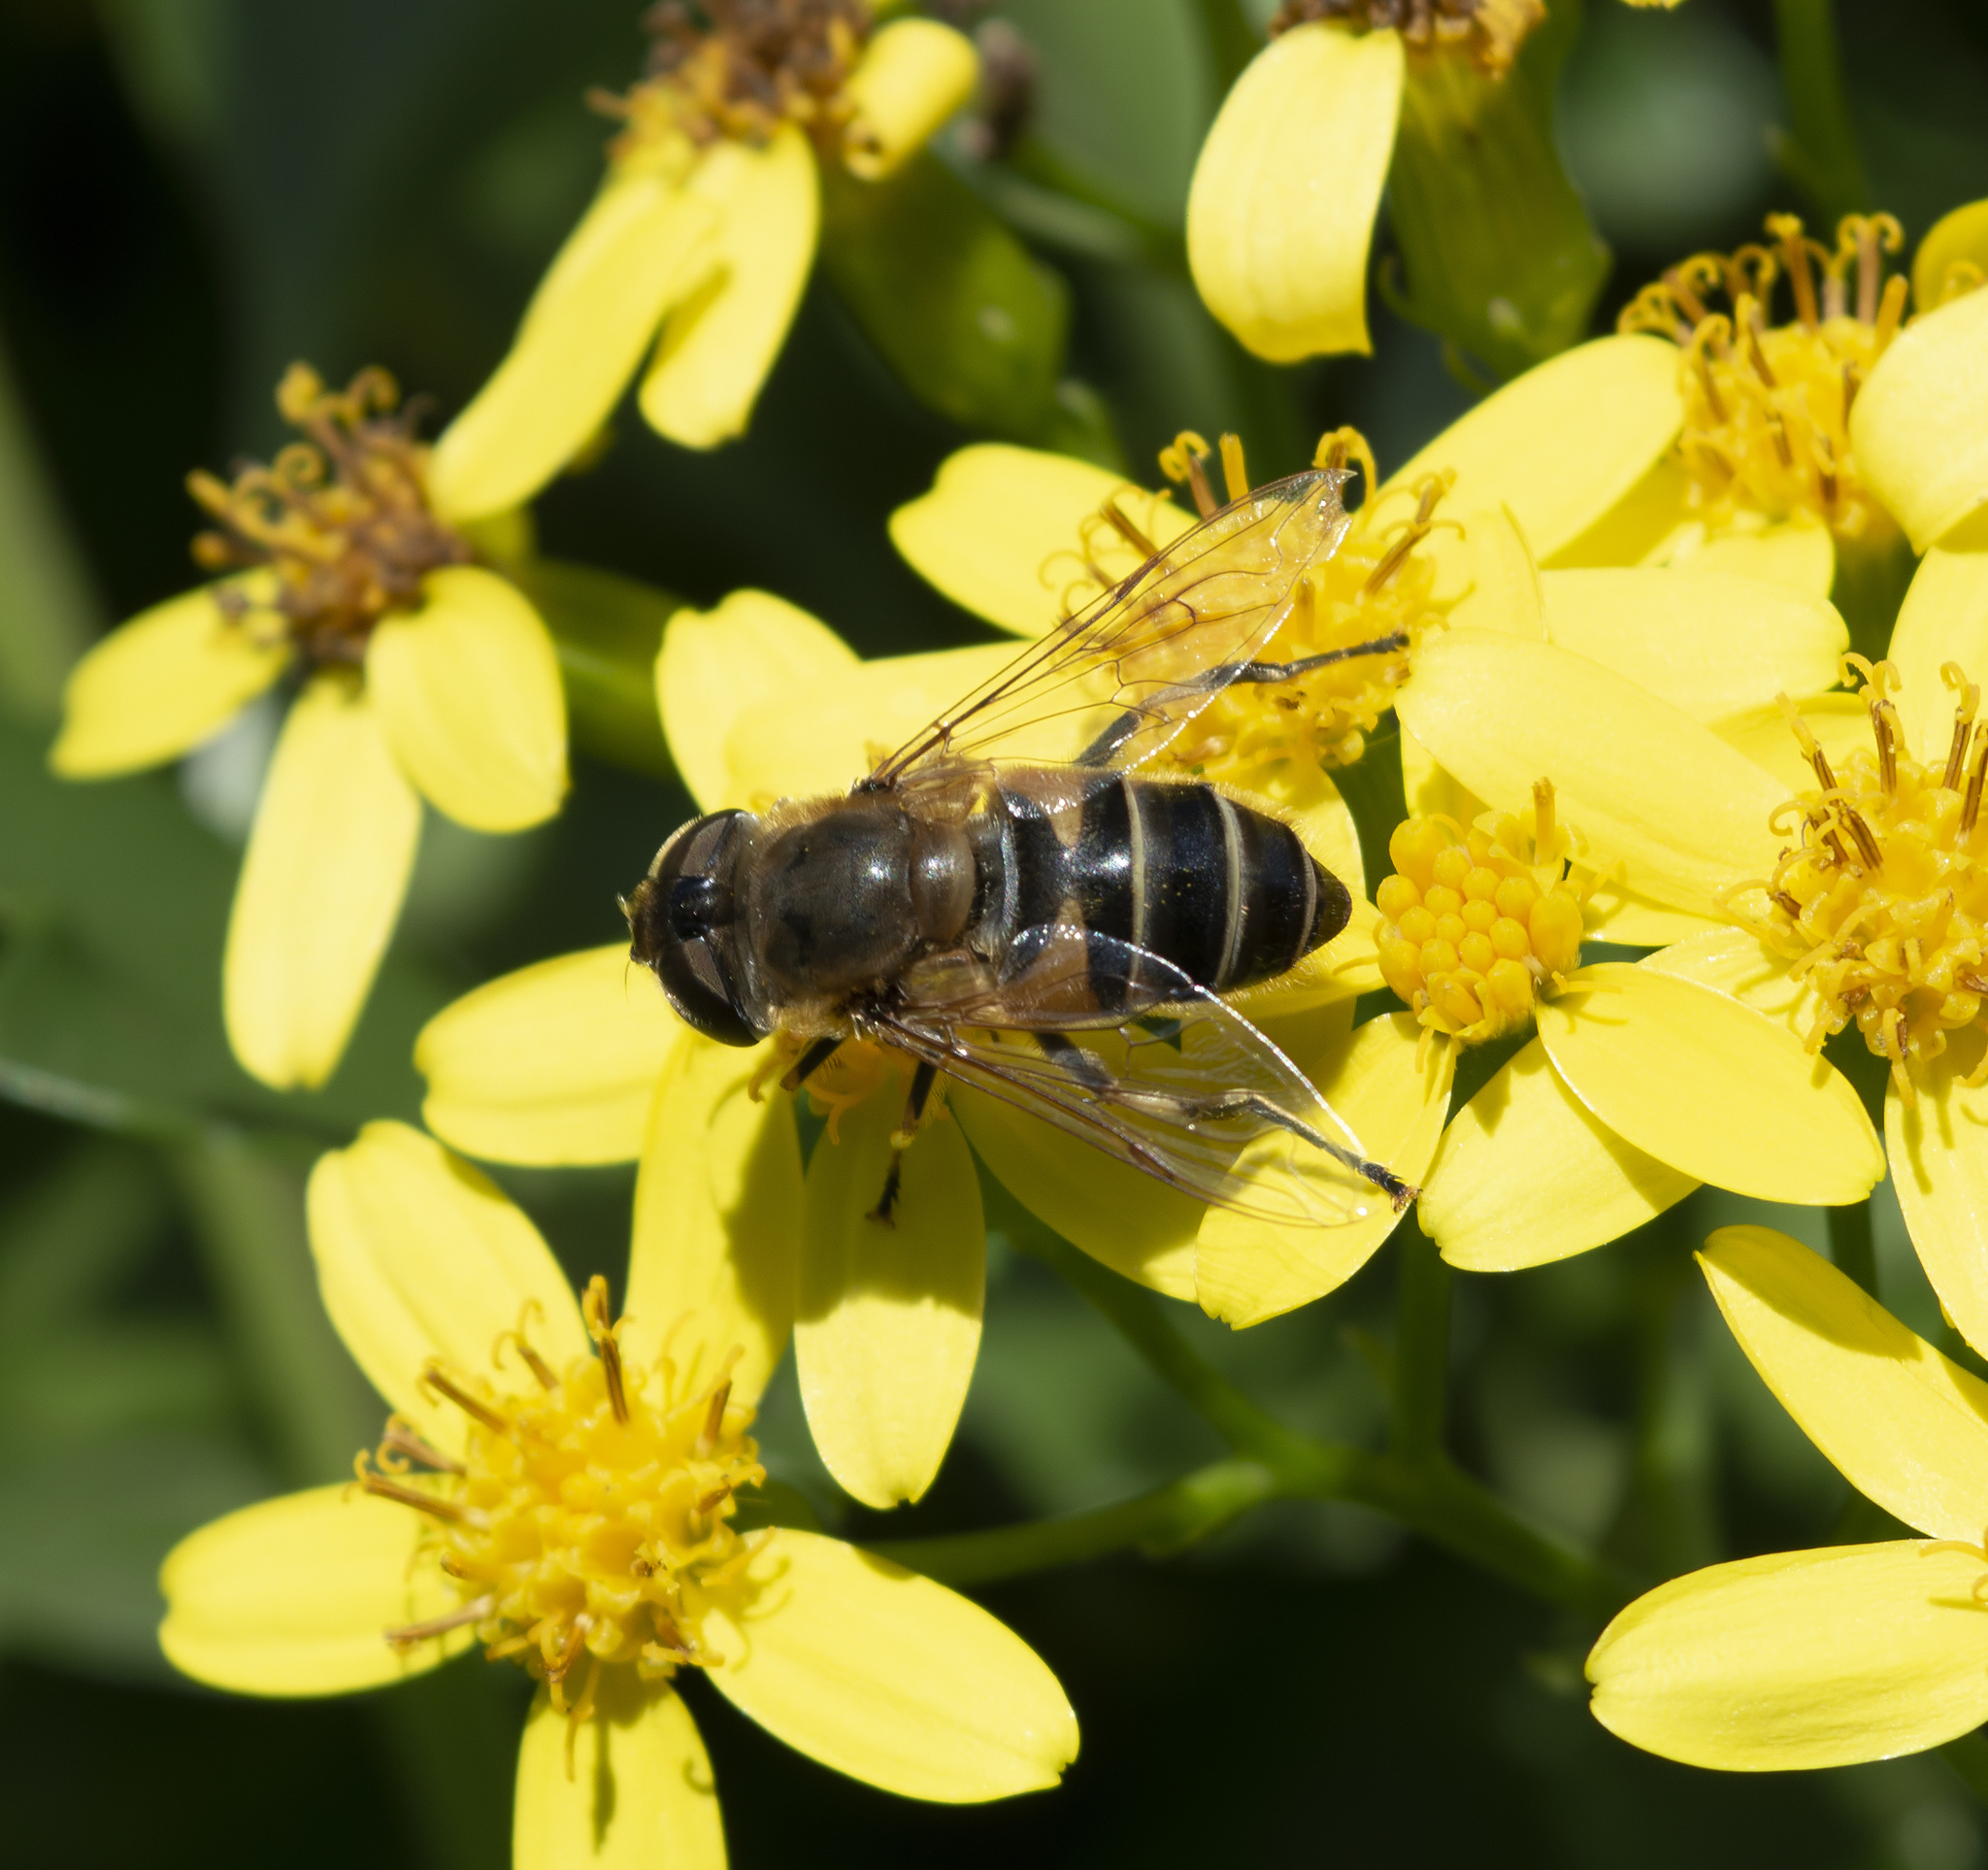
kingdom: Animalia
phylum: Arthropoda
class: Insecta
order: Diptera
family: Syrphidae
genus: Eristalis
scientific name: Eristalis pertinax
